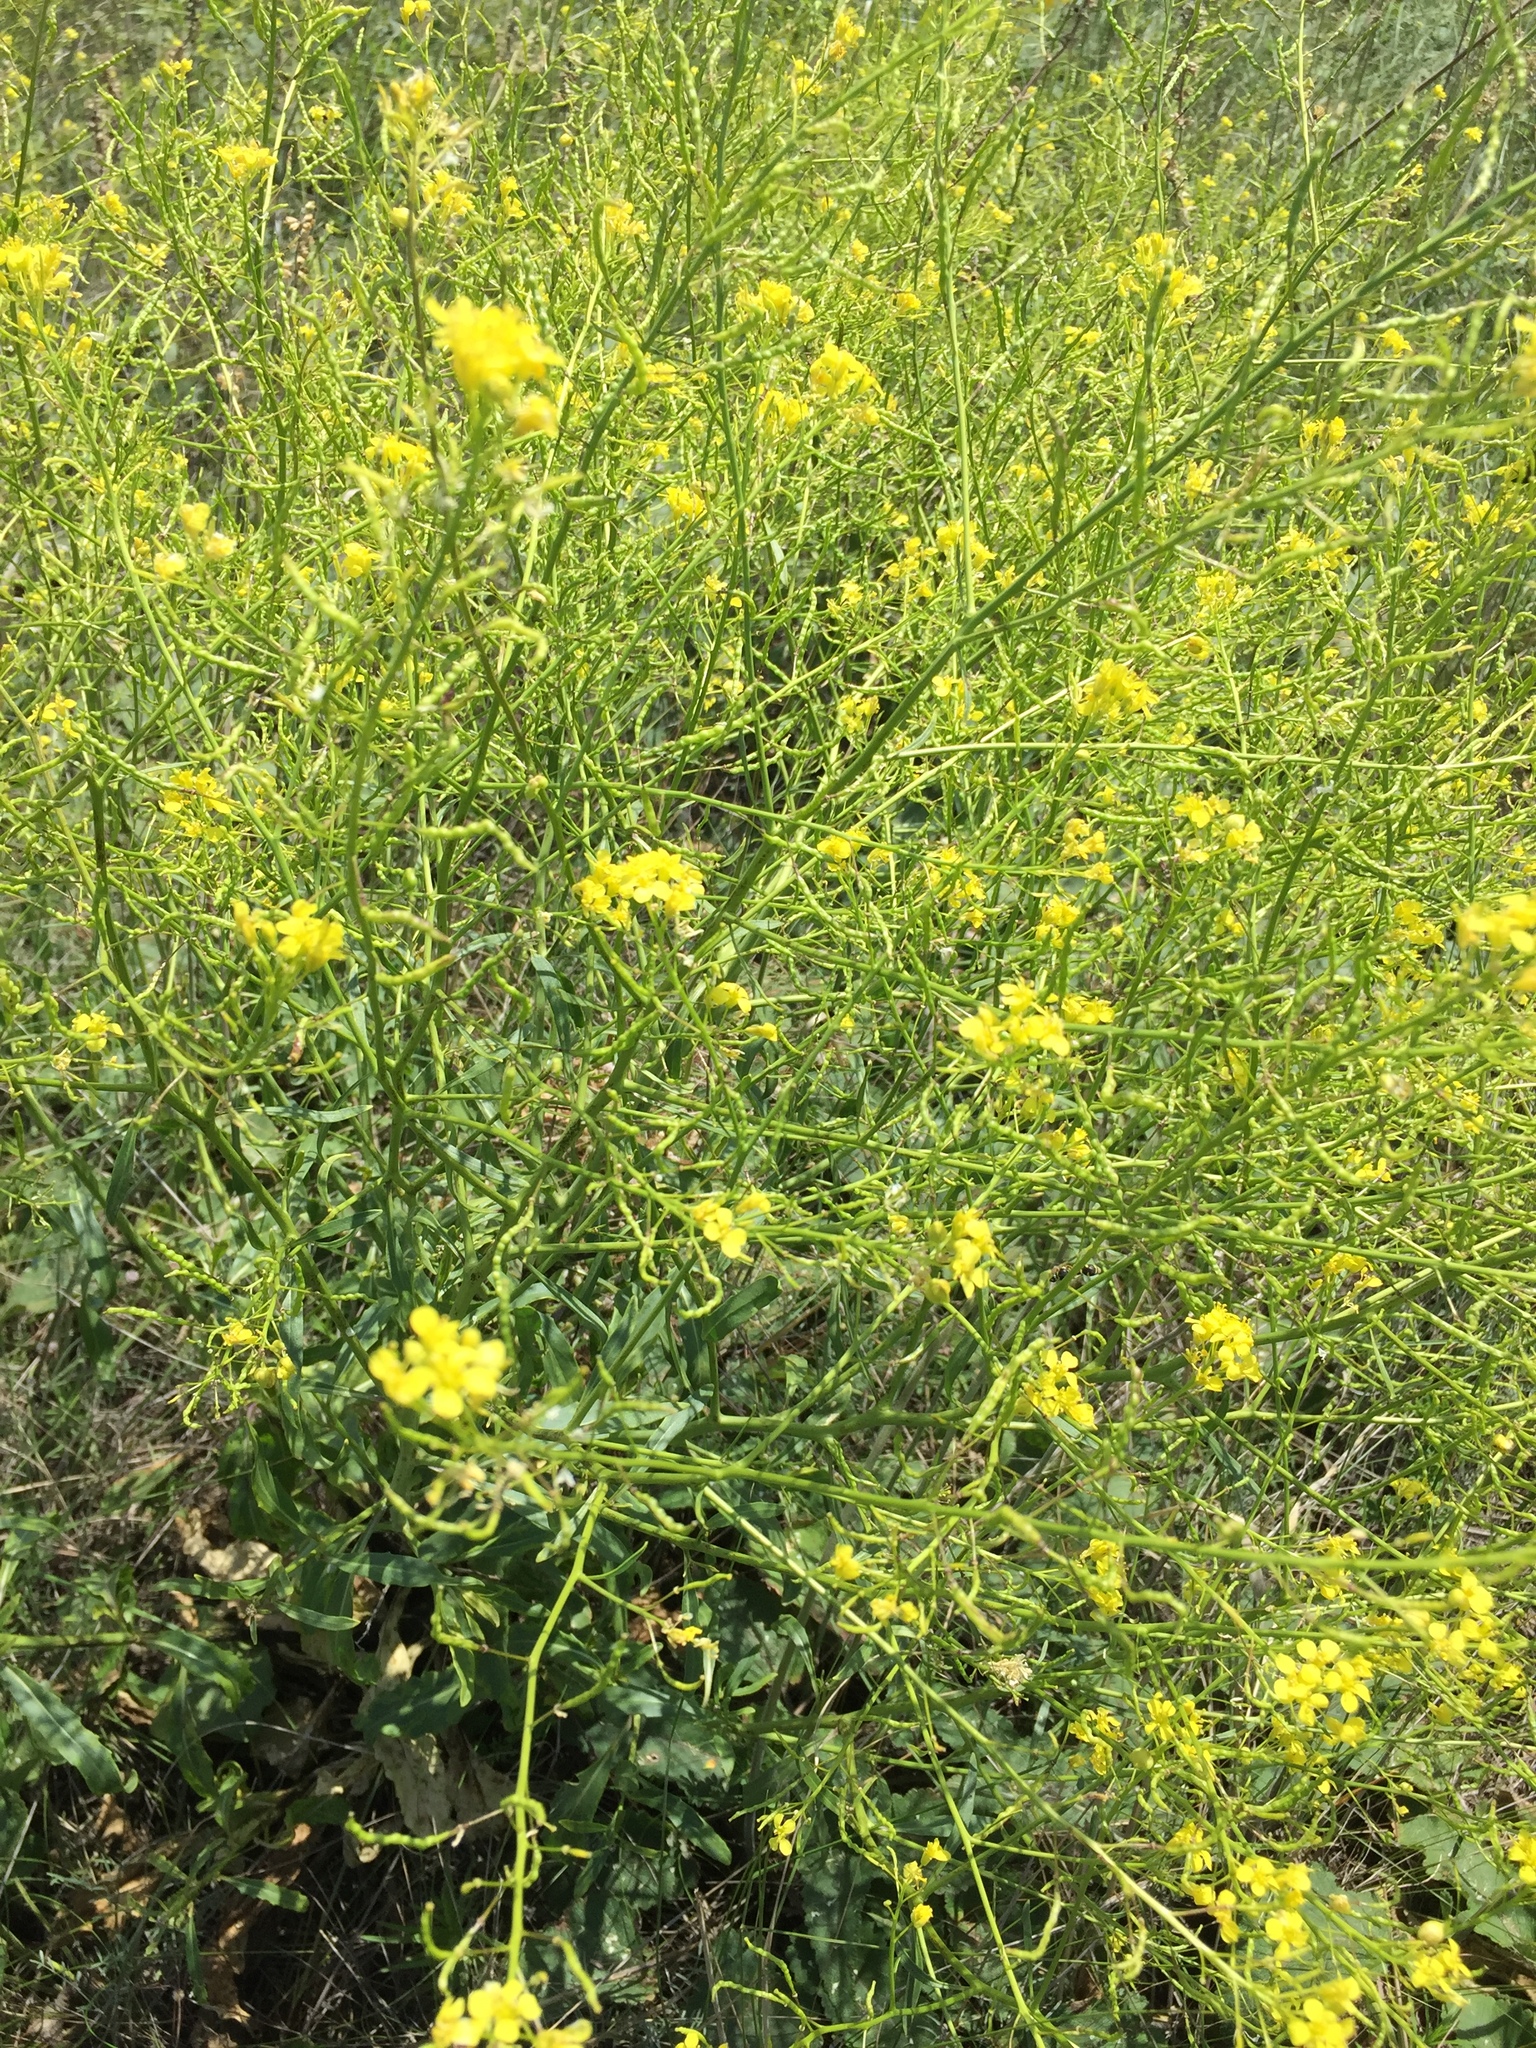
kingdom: Plantae
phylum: Tracheophyta
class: Magnoliopsida
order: Brassicales
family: Brassicaceae
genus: Brassica
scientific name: Brassica elongata
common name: Long-stalked rape
